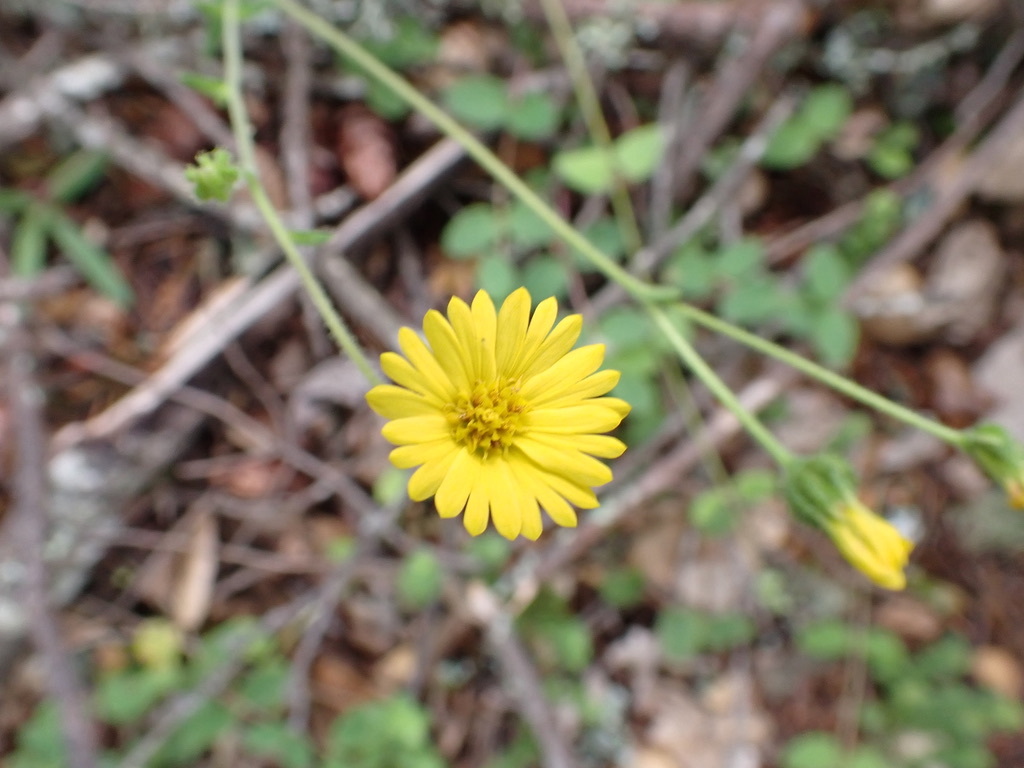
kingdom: Plantae
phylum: Tracheophyta
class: Magnoliopsida
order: Asterales
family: Asteraceae
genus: Anisocarpus
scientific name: Anisocarpus madioides
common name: Woodland madia
